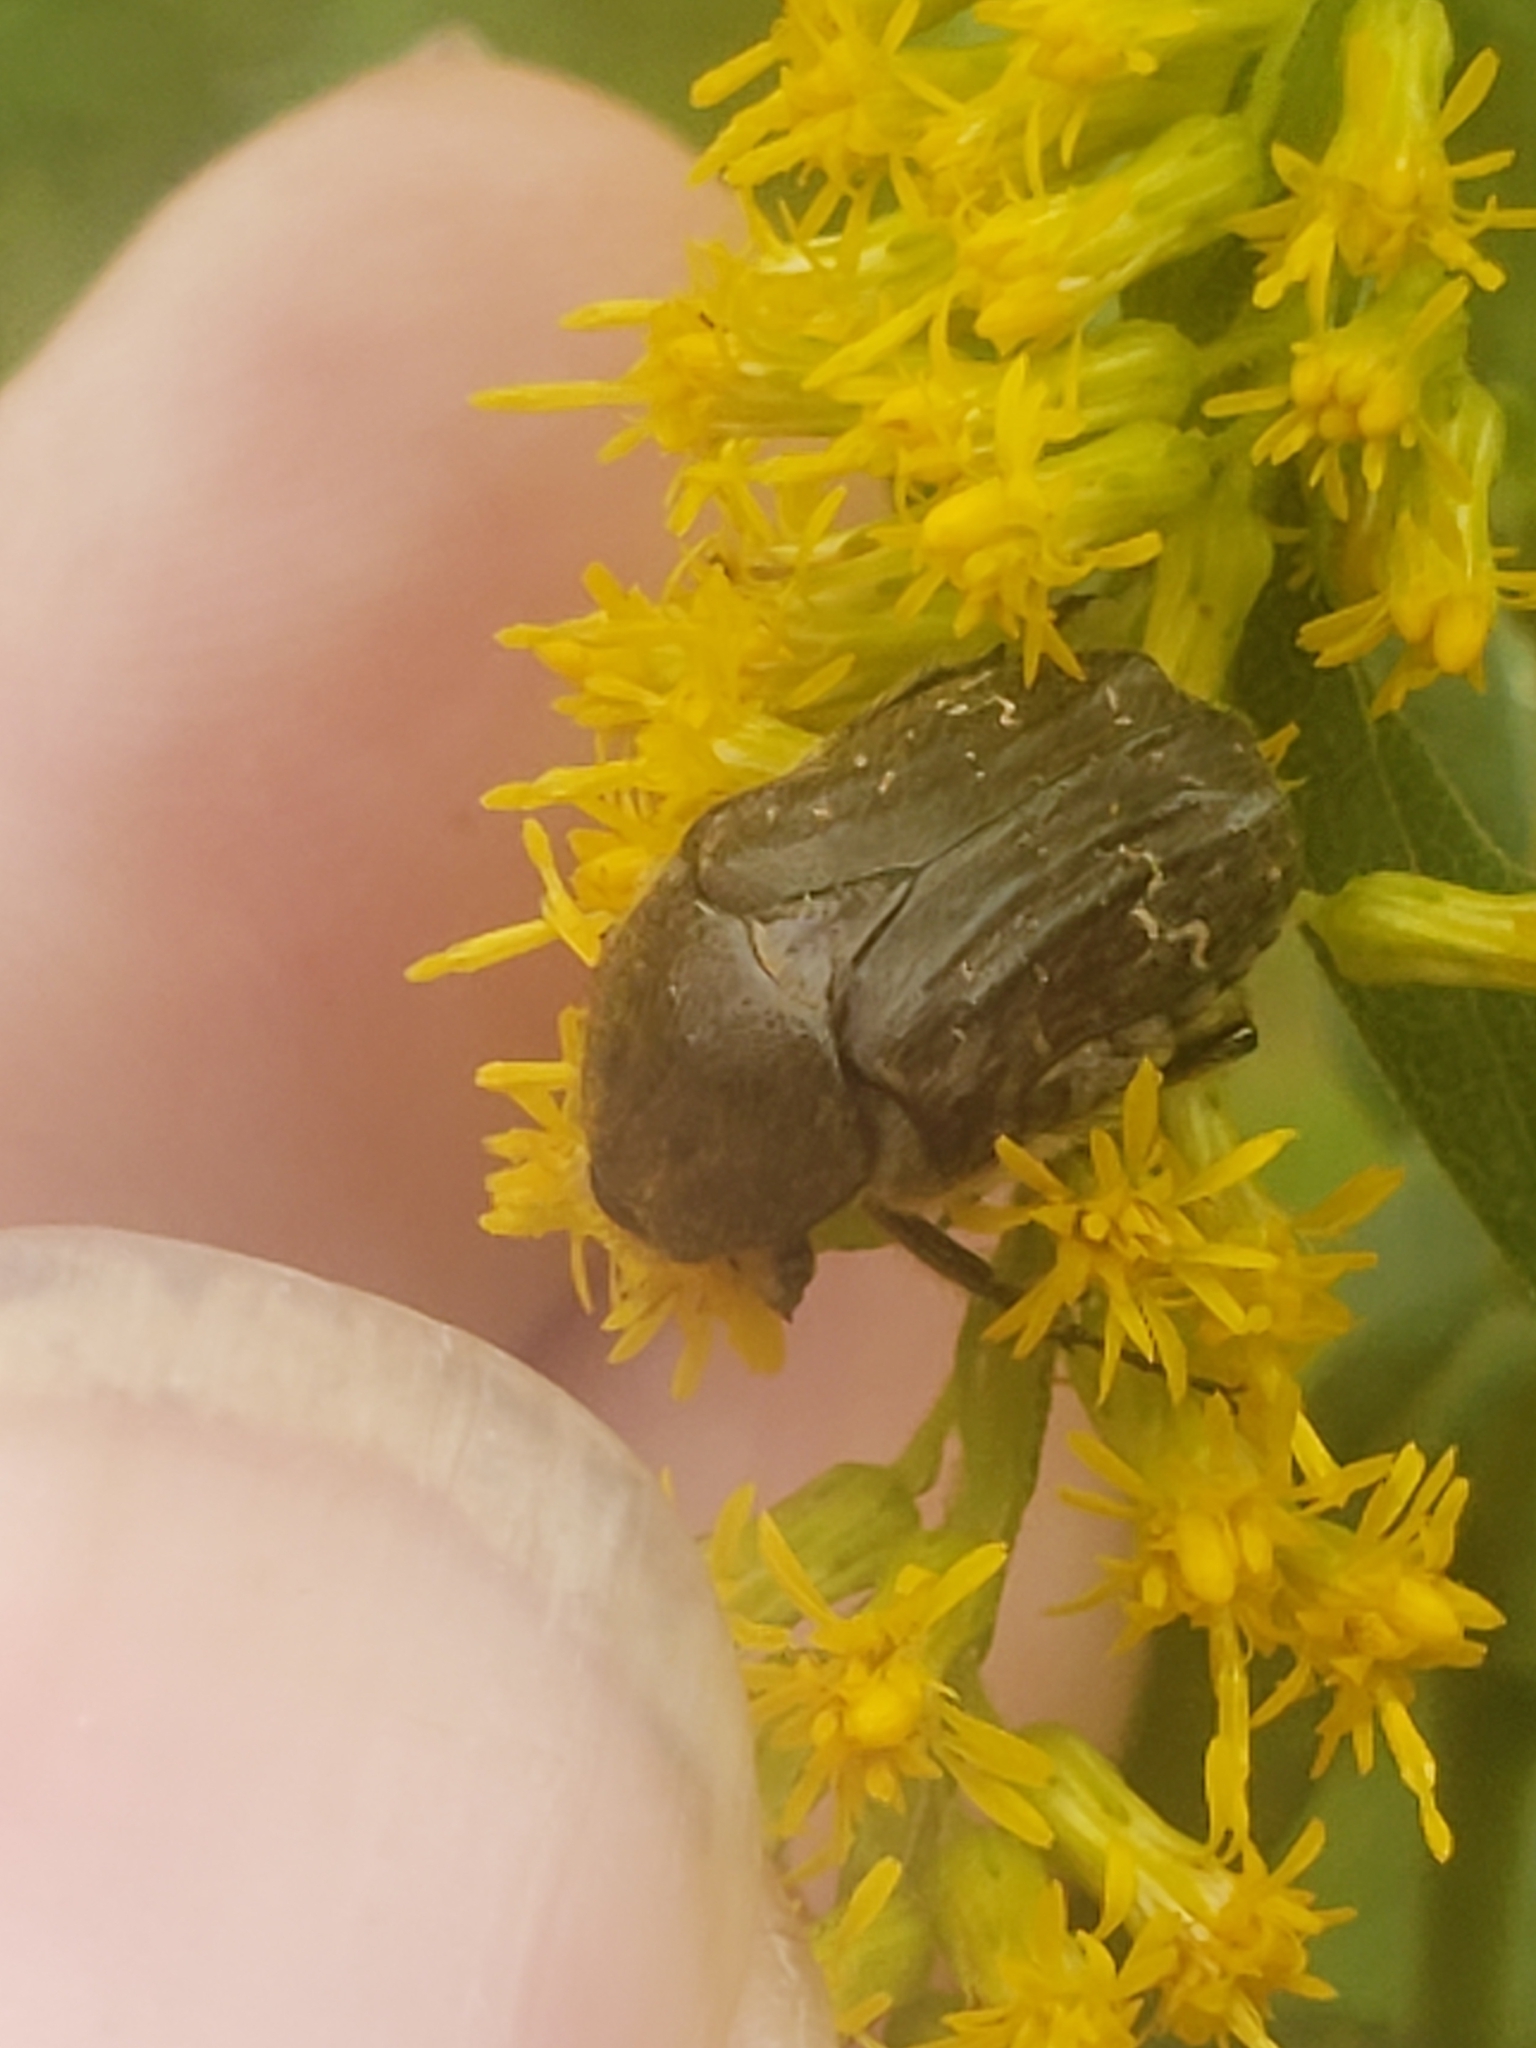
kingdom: Animalia
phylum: Arthropoda
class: Insecta
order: Coleoptera
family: Scarabaeidae
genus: Euphoria
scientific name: Euphoria sepulcralis
